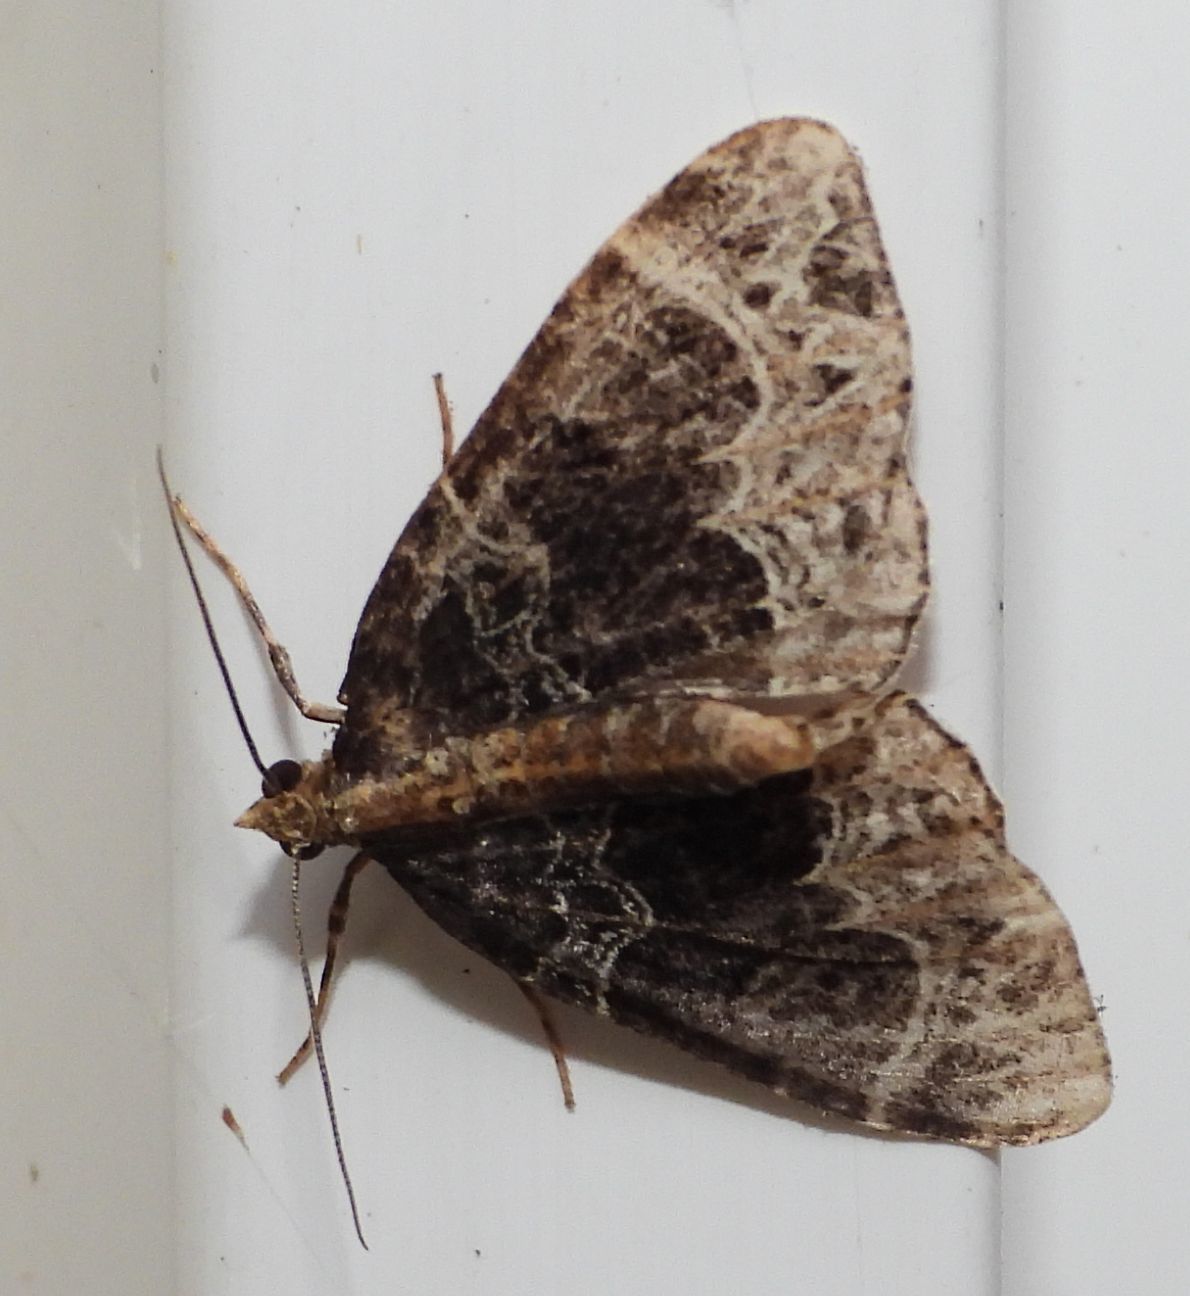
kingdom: Animalia
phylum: Arthropoda
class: Insecta
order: Lepidoptera
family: Geometridae
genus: Ecliptopera
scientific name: Ecliptopera silaceata
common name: Small phoenix
